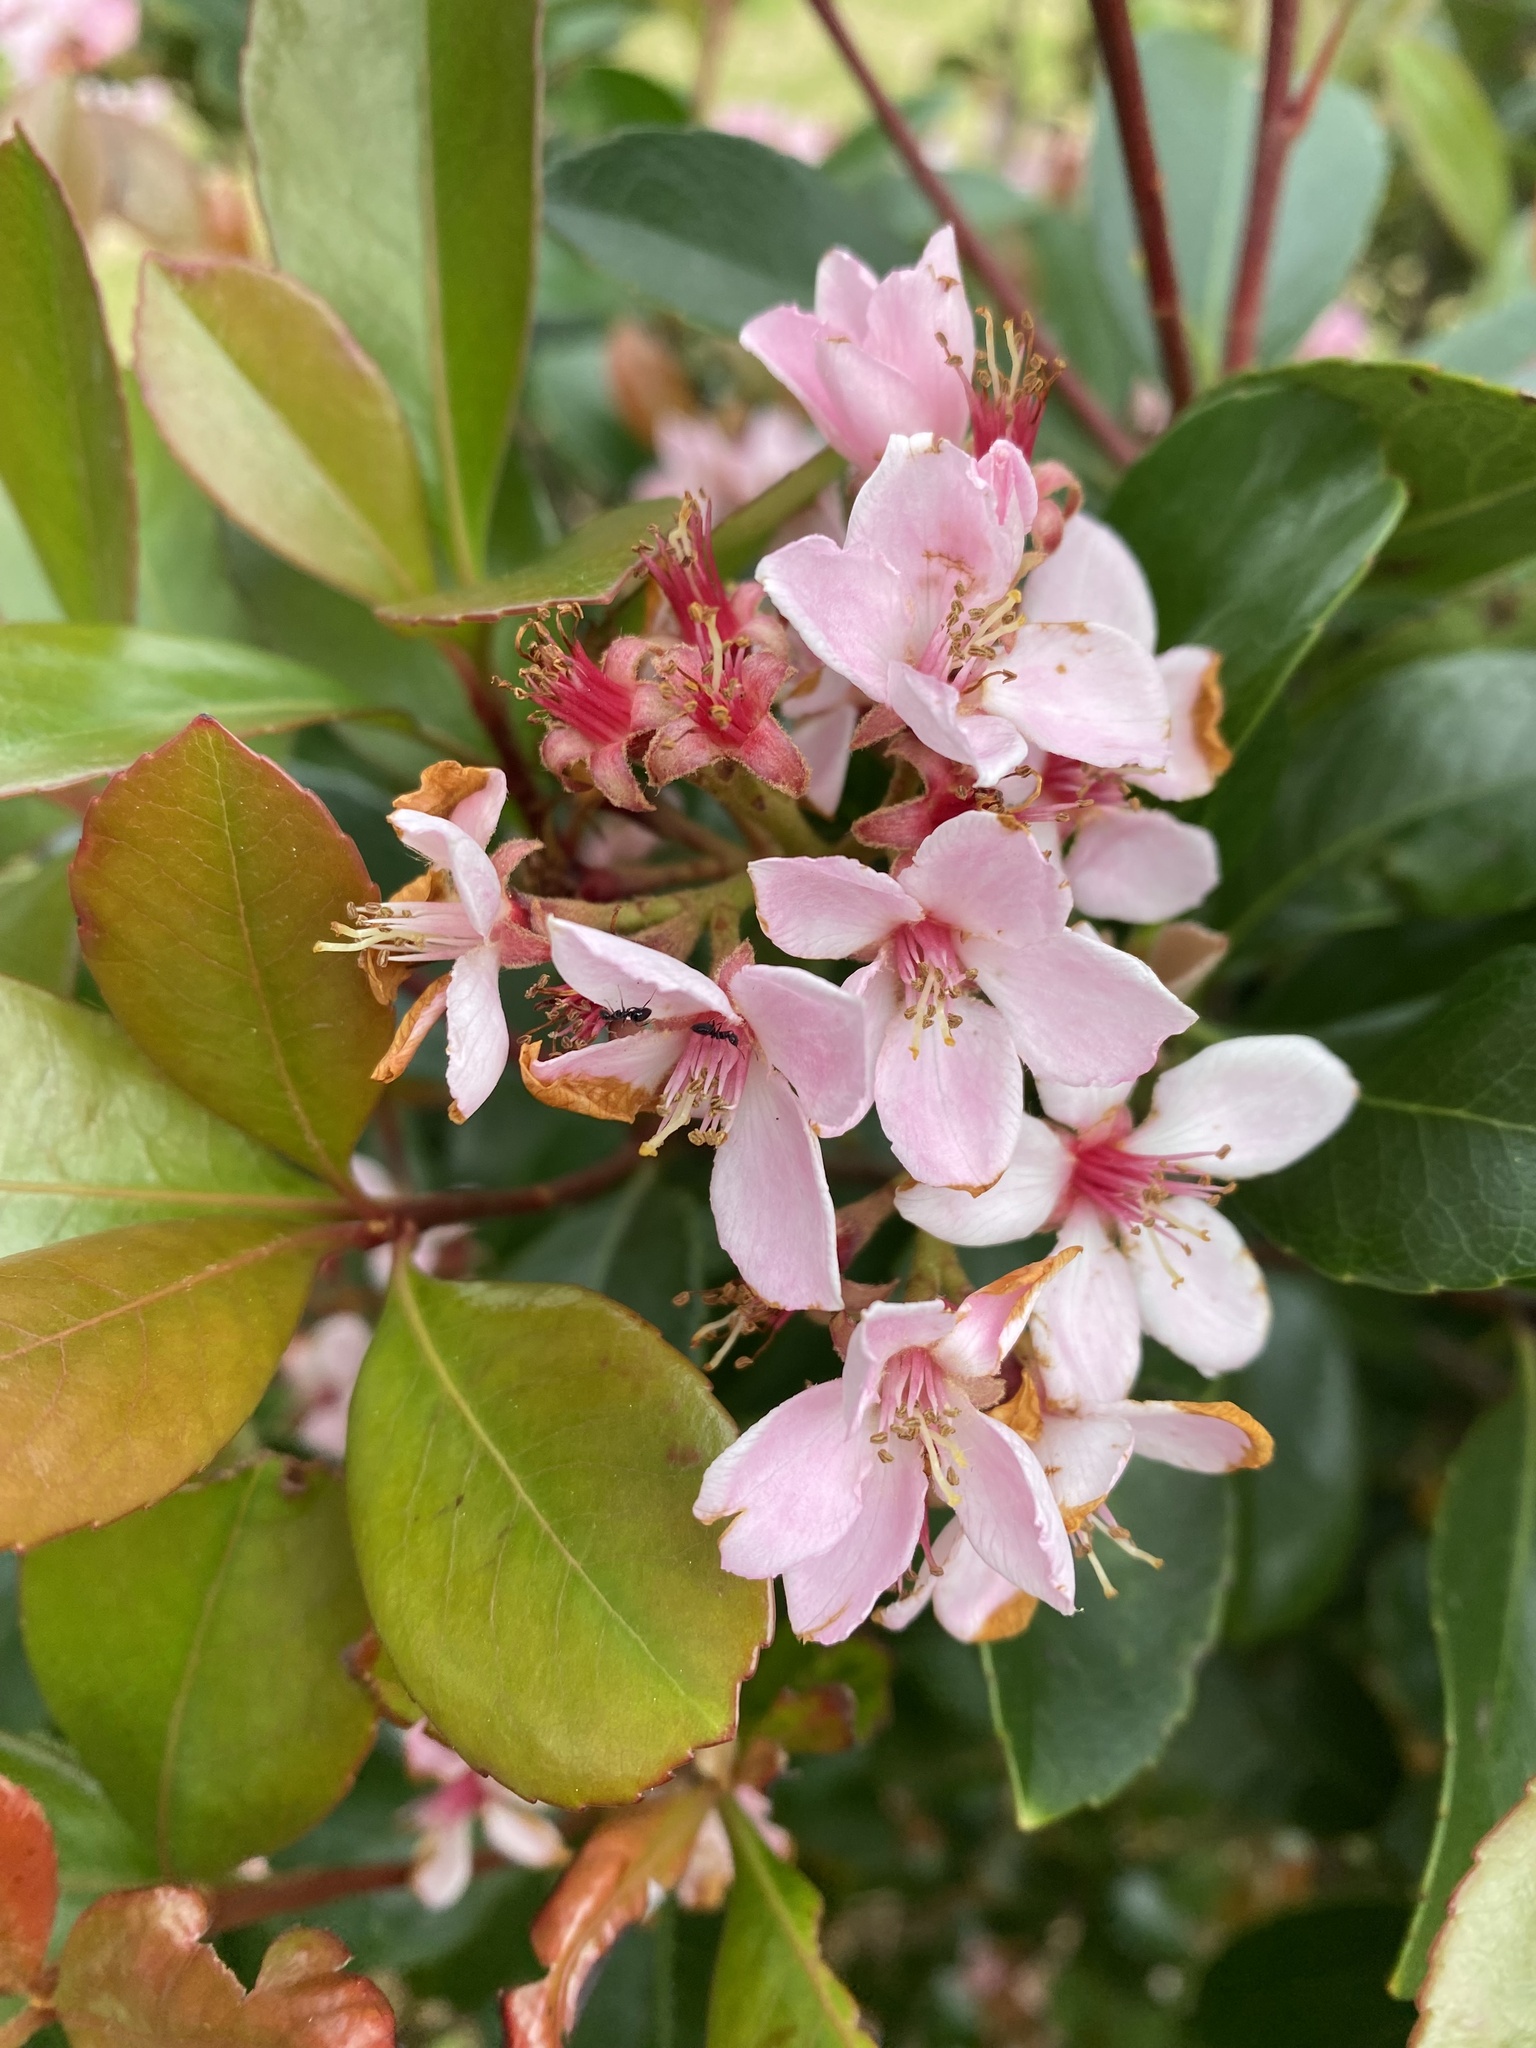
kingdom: Plantae
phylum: Tracheophyta
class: Magnoliopsida
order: Rosales
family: Rosaceae
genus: Rhaphiolepis
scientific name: Rhaphiolepis indica
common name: India-hawthorn
